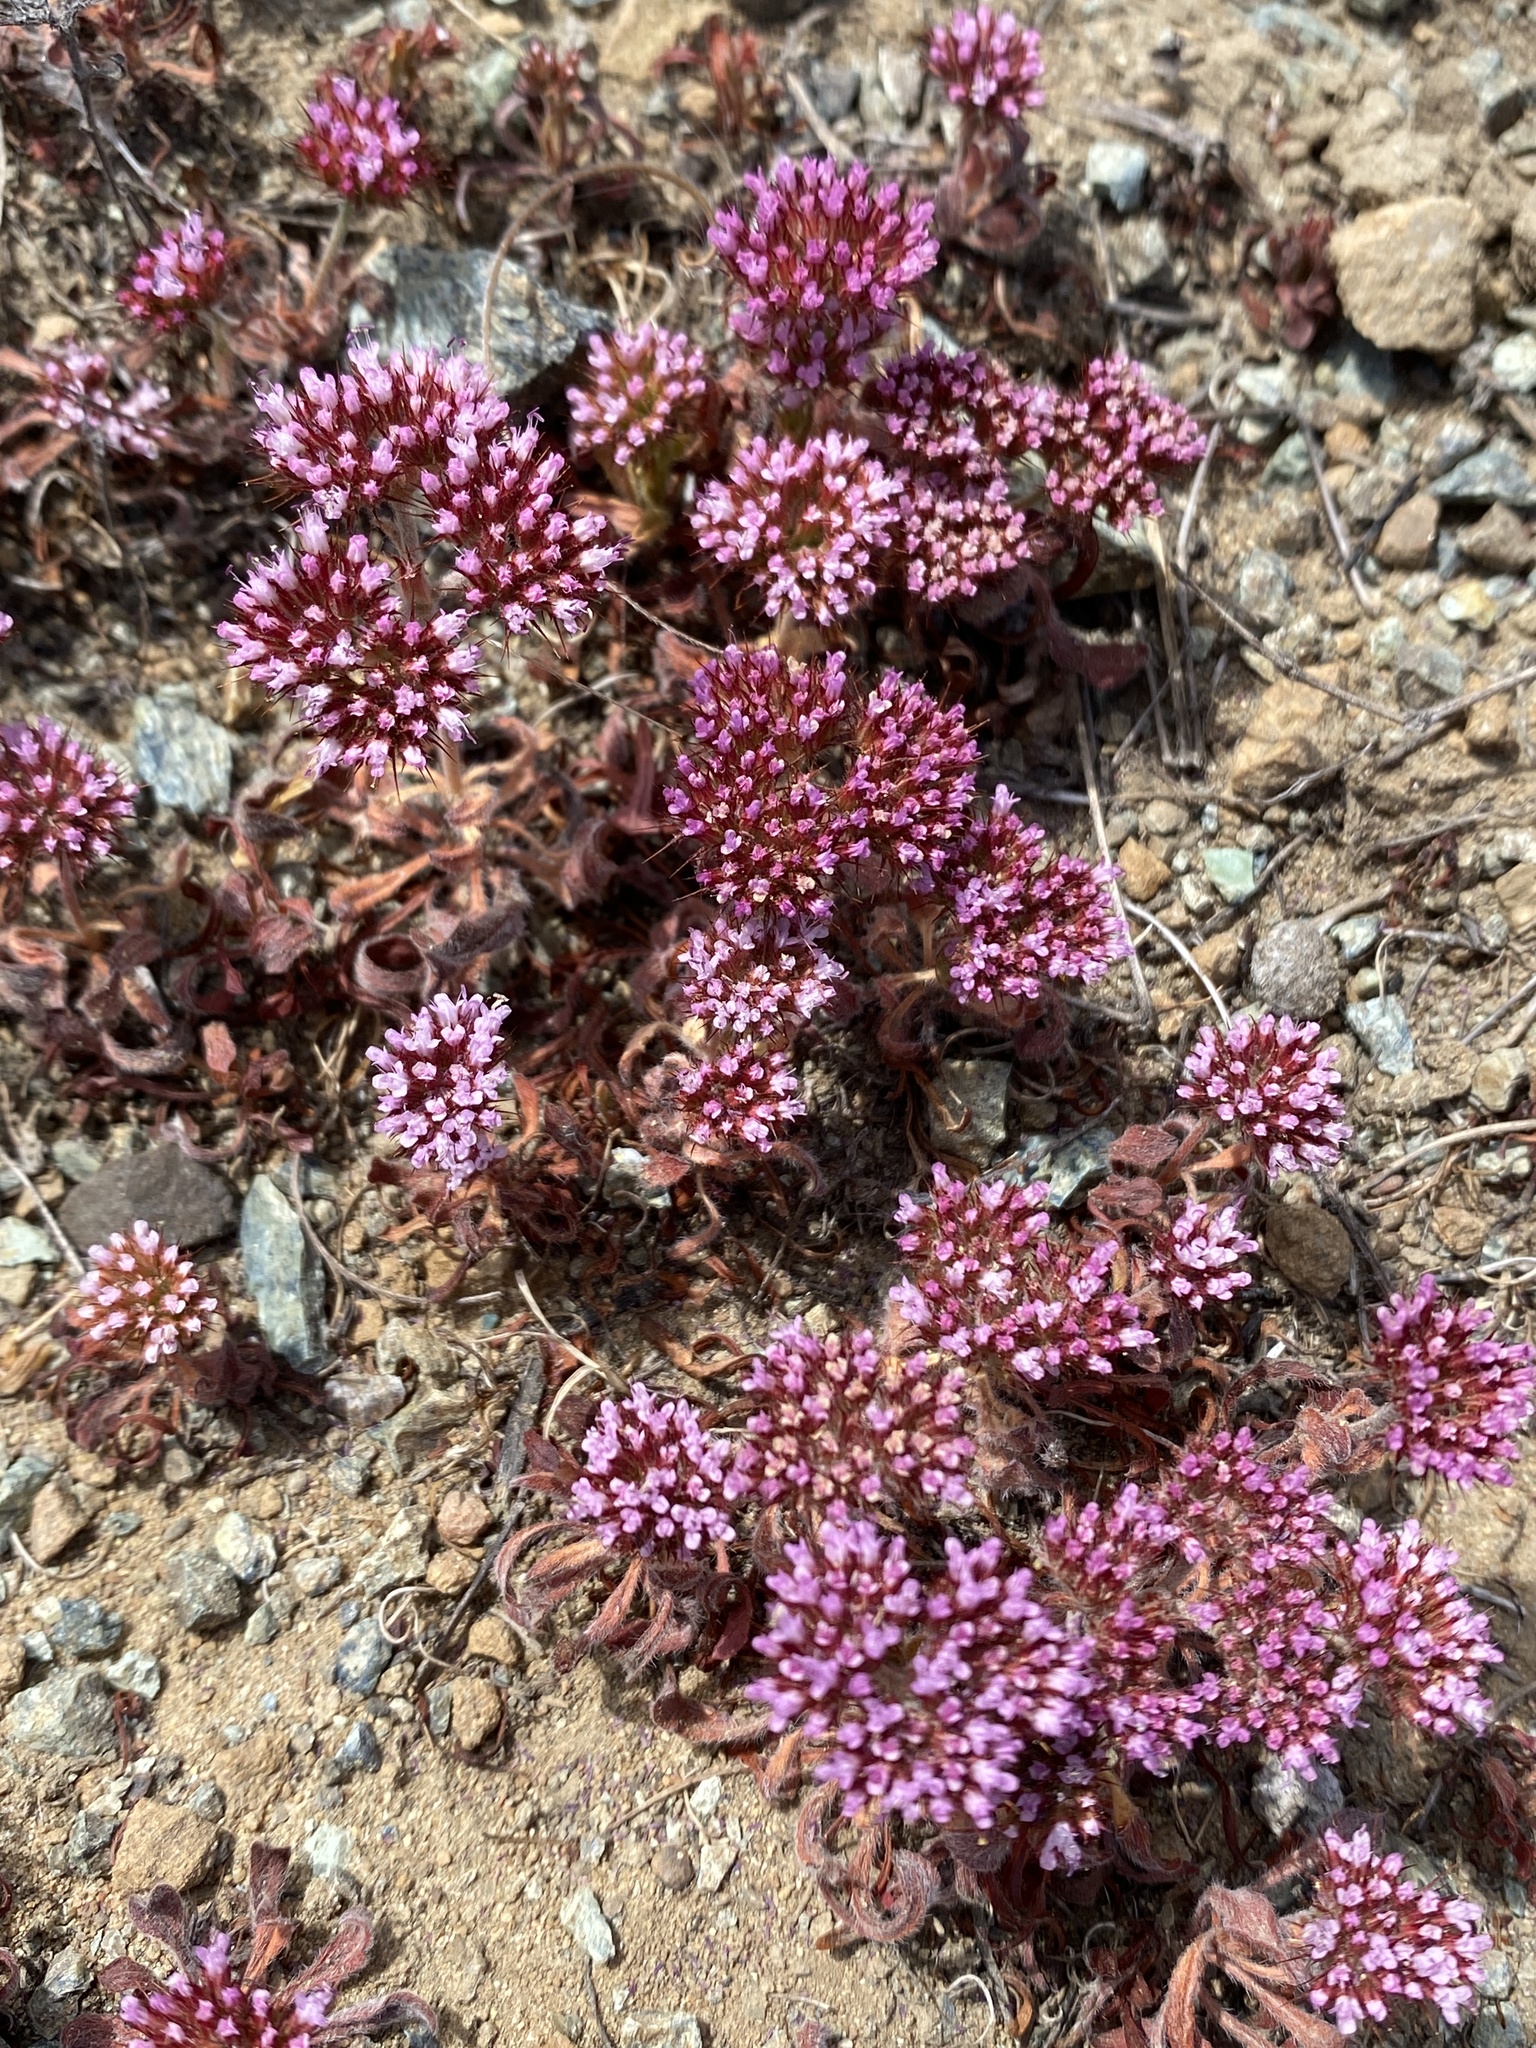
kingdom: Plantae
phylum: Tracheophyta
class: Magnoliopsida
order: Caryophyllales
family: Polygonaceae
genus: Chorizanthe
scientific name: Chorizanthe palmeri
